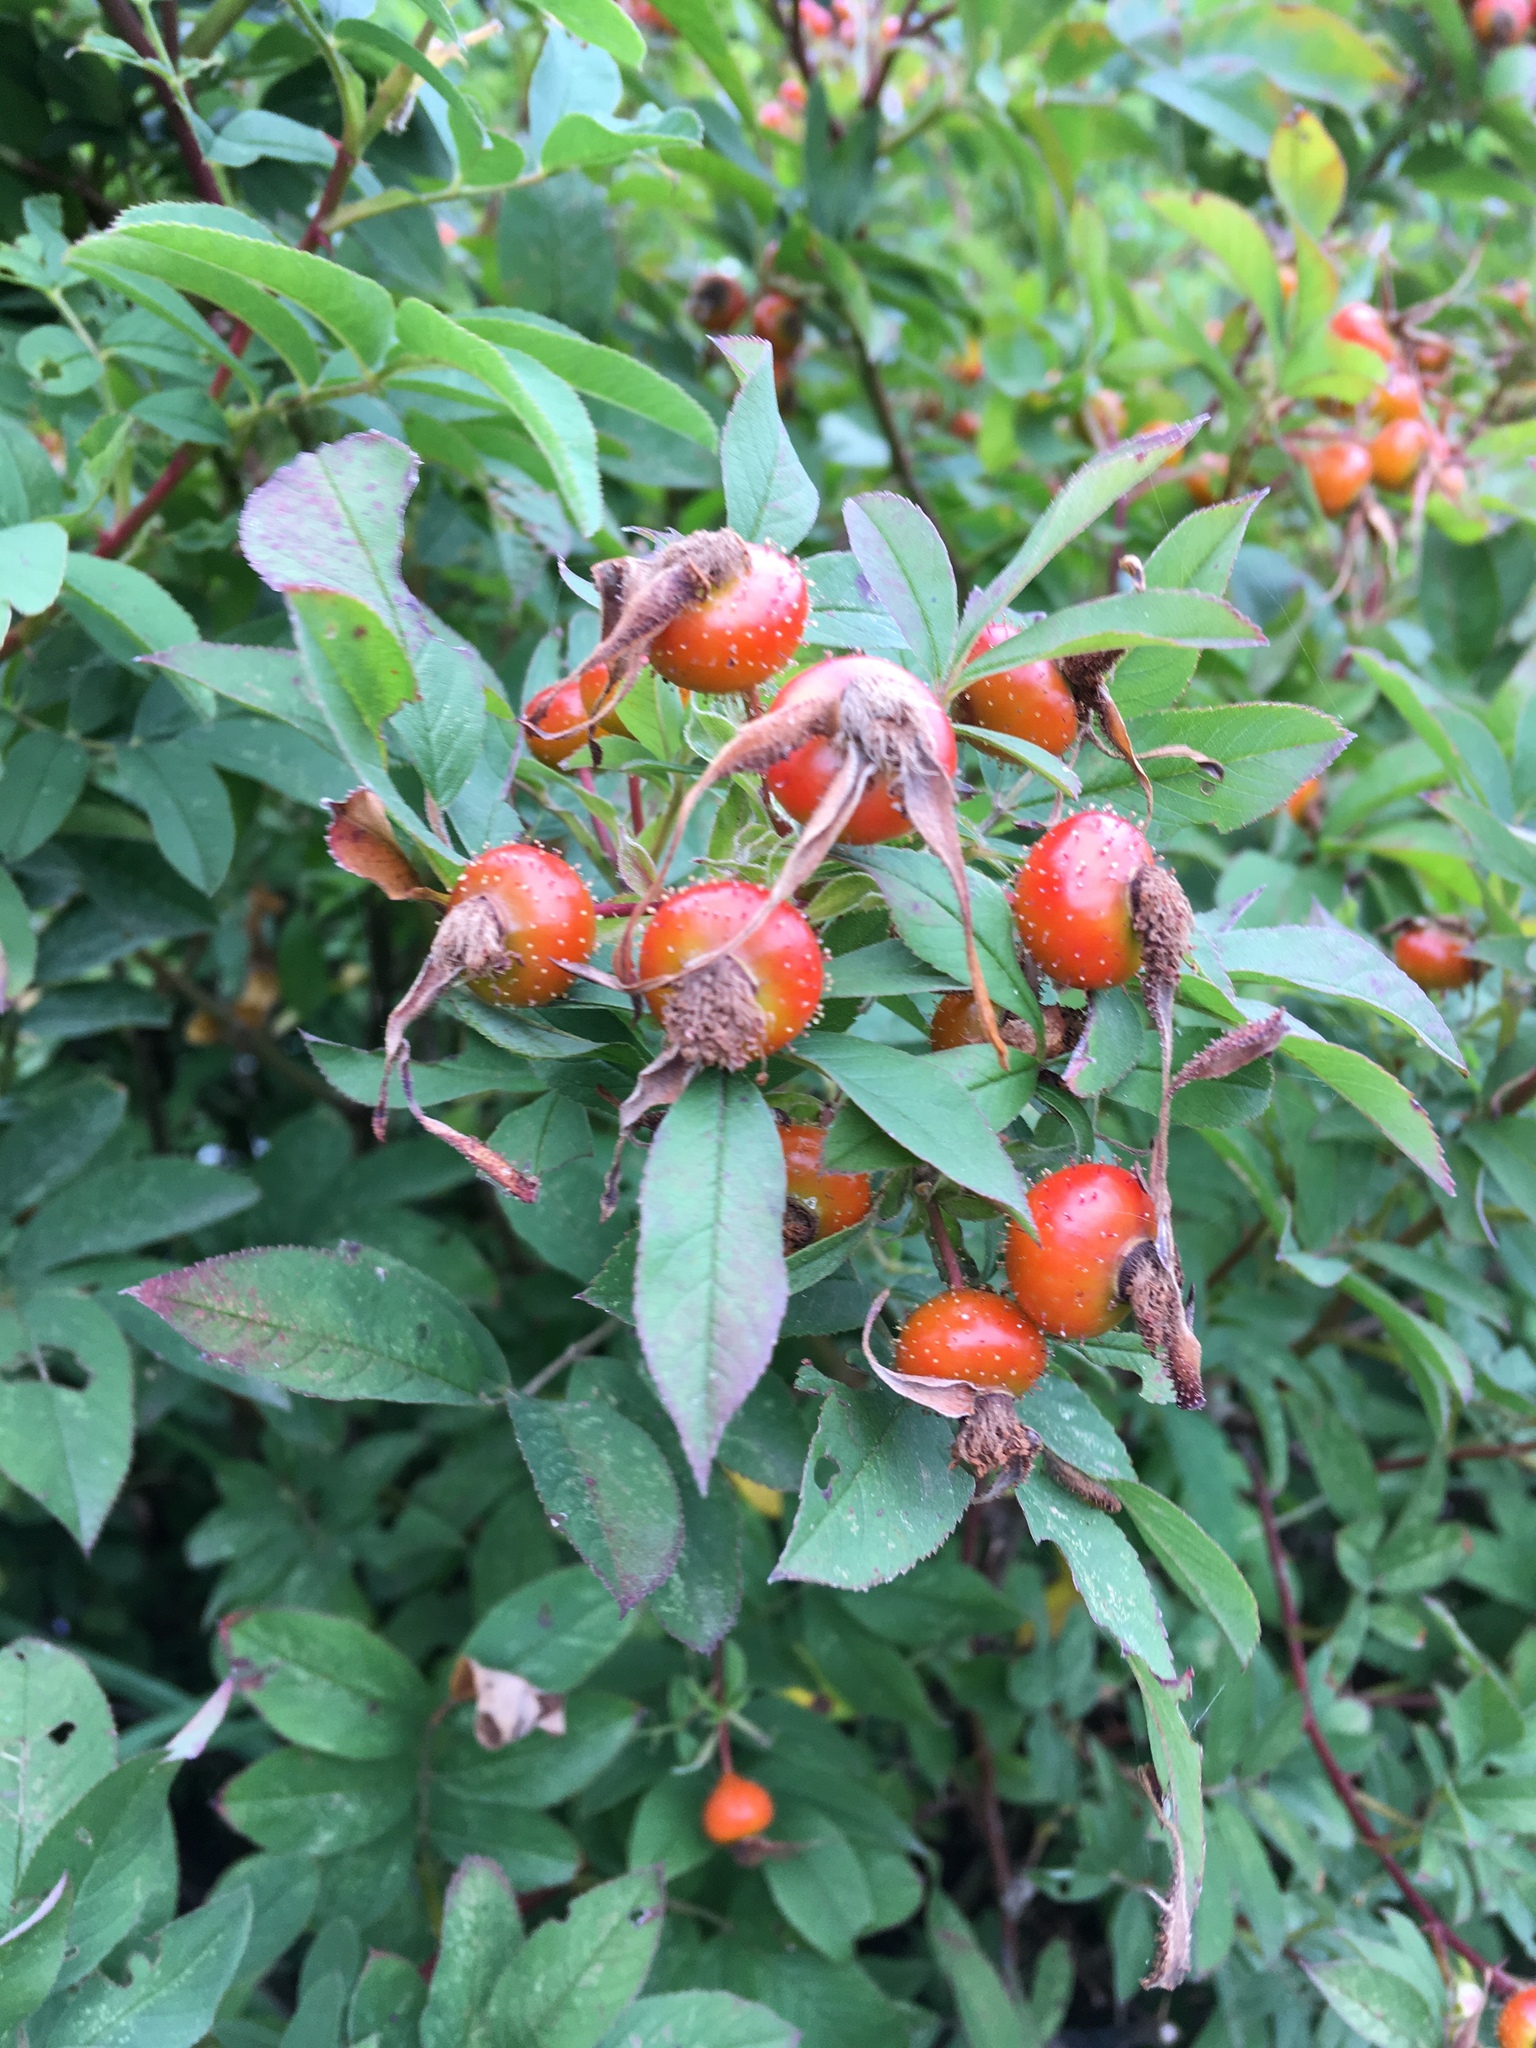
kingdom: Plantae
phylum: Tracheophyta
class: Magnoliopsida
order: Rosales
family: Rosaceae
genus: Rosa
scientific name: Rosa palustris
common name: Swamp rose
